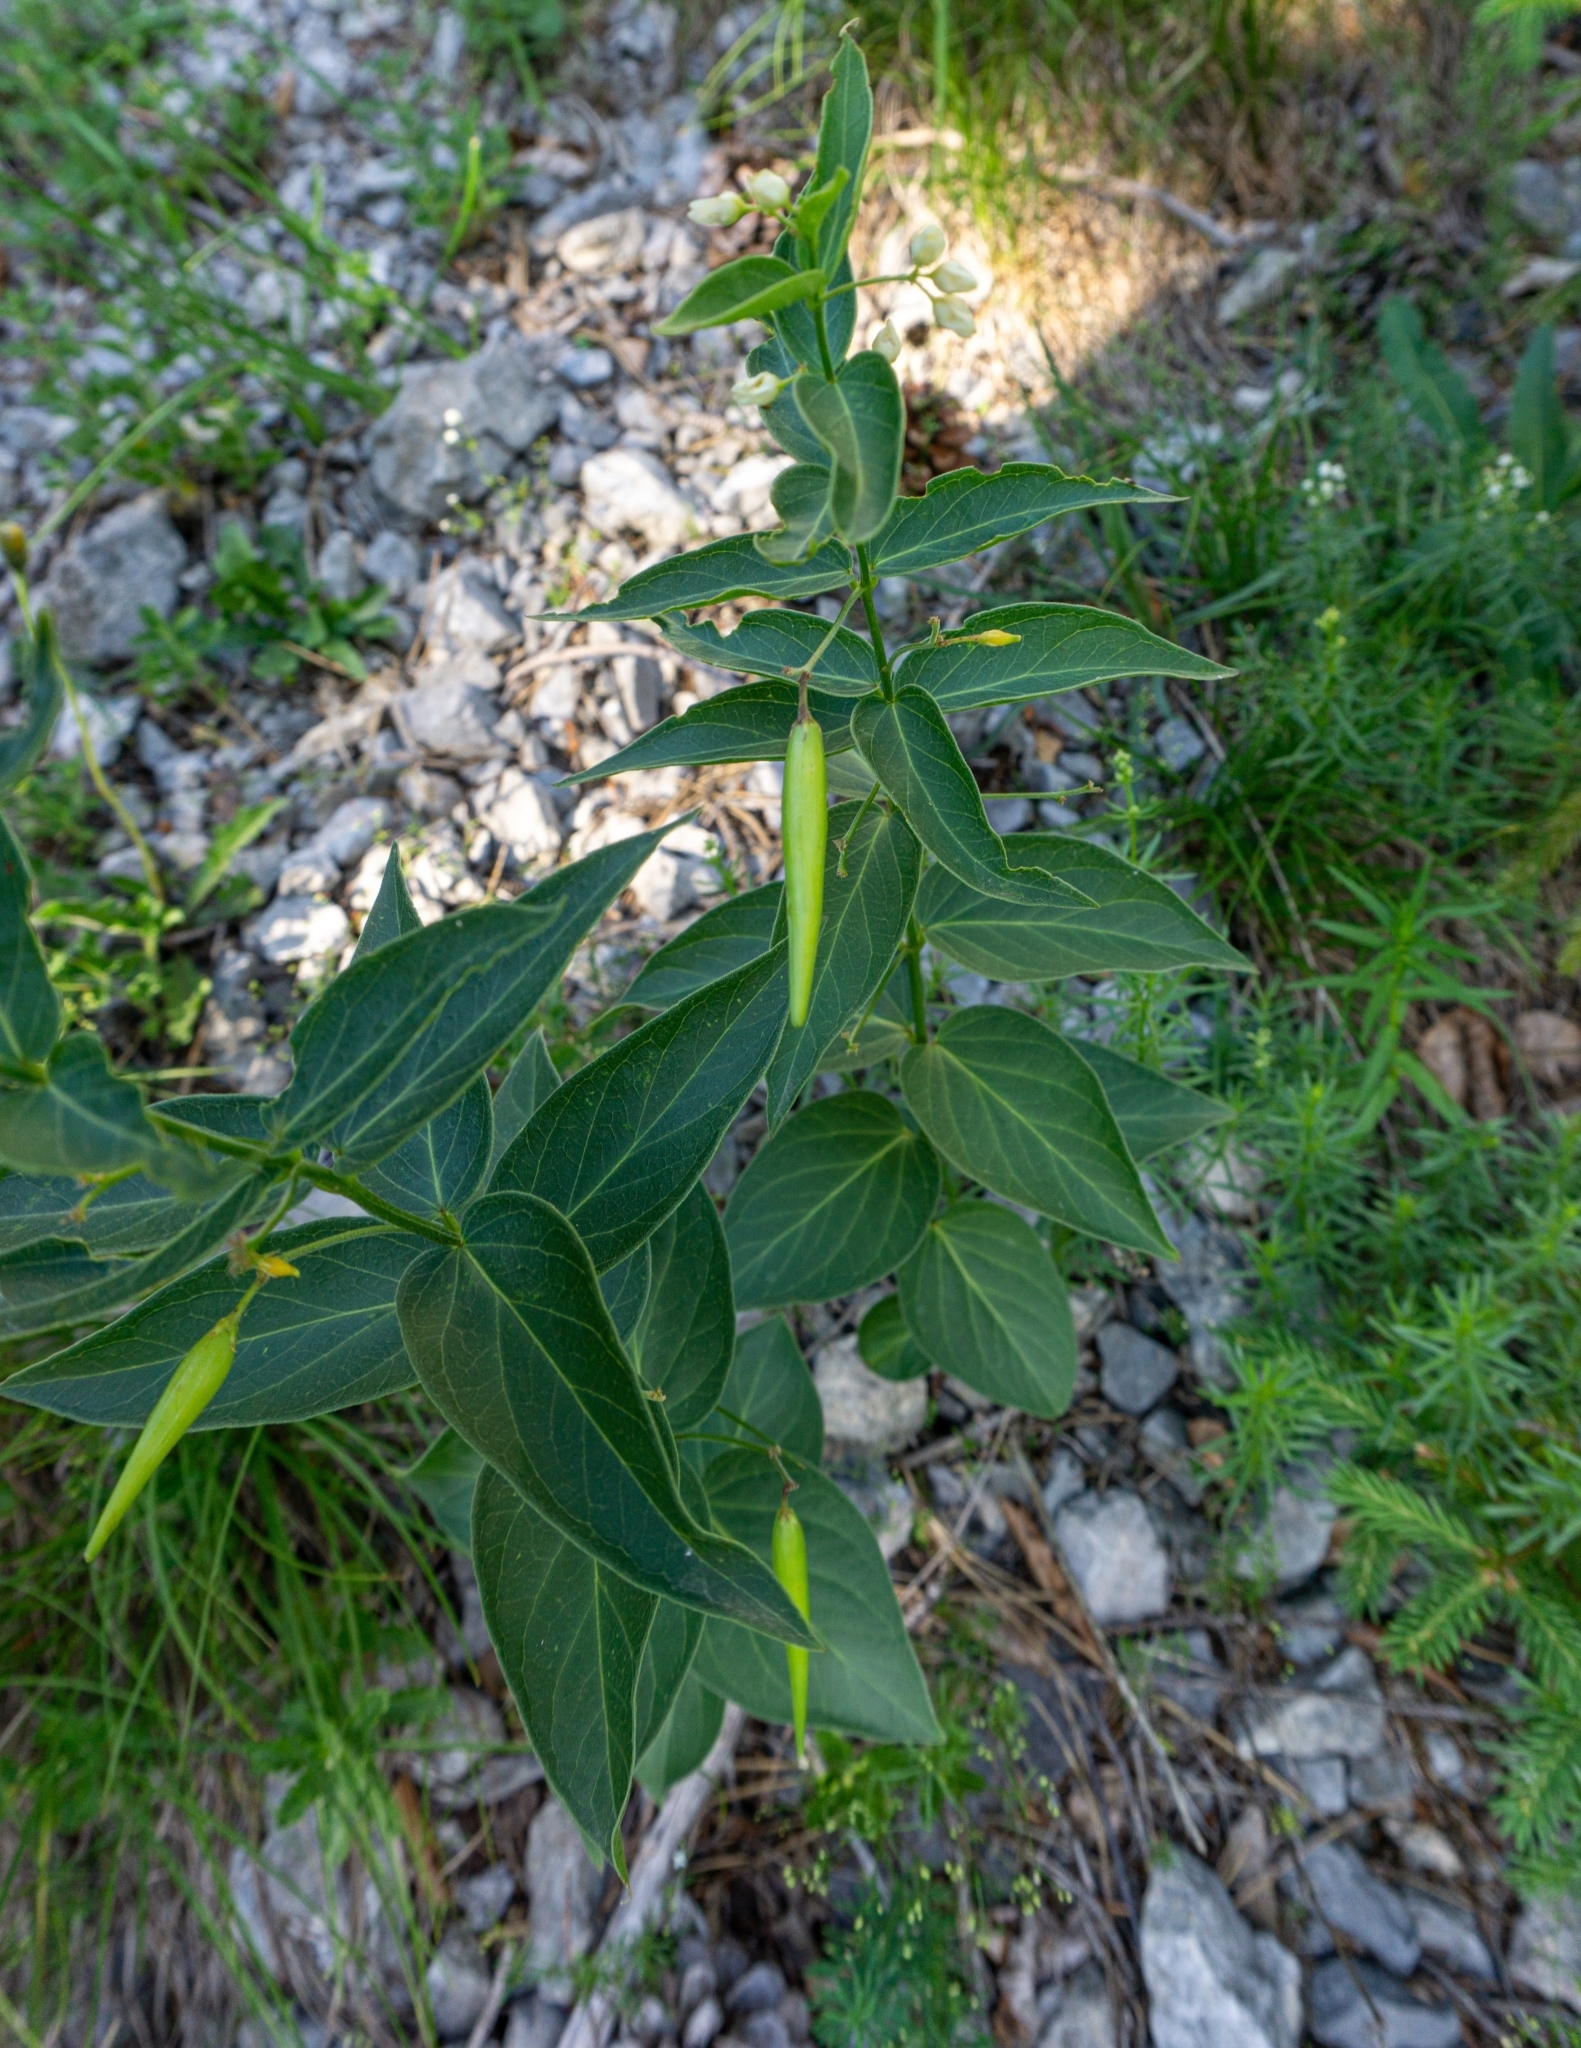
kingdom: Plantae
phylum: Tracheophyta
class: Magnoliopsida
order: Gentianales
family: Apocynaceae
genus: Vincetoxicum
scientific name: Vincetoxicum hirundinaria
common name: White swallowwort
